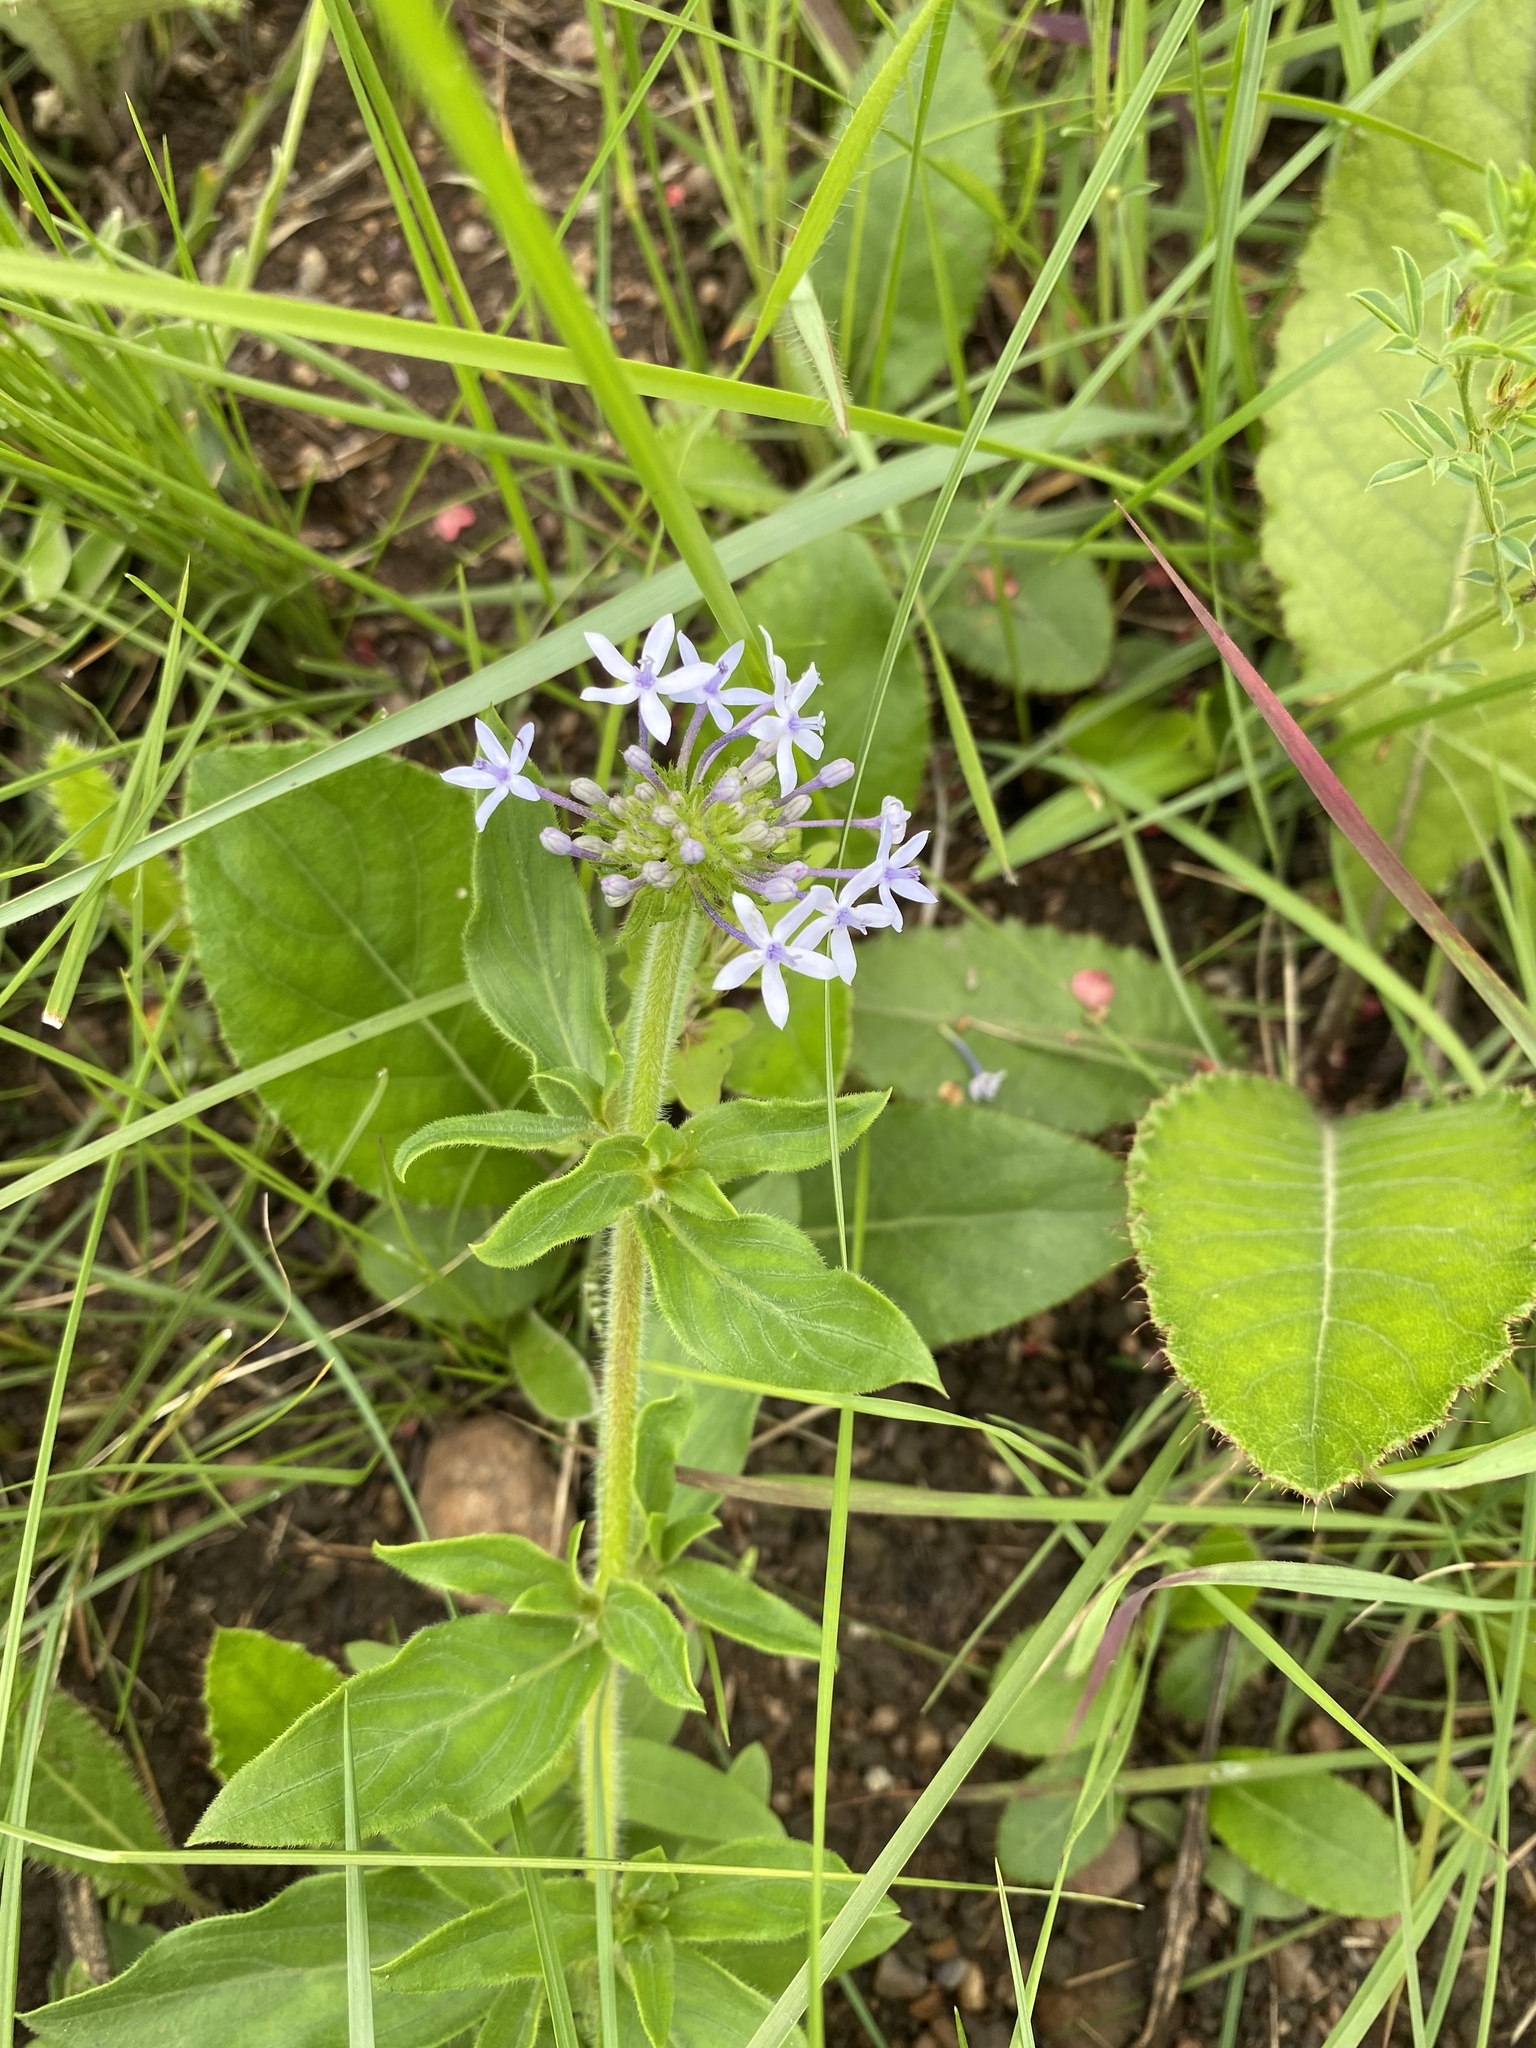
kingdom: Plantae
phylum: Tracheophyta
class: Magnoliopsida
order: Gentianales
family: Rubiaceae
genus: Pentanisia
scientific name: Pentanisia prunelloides
